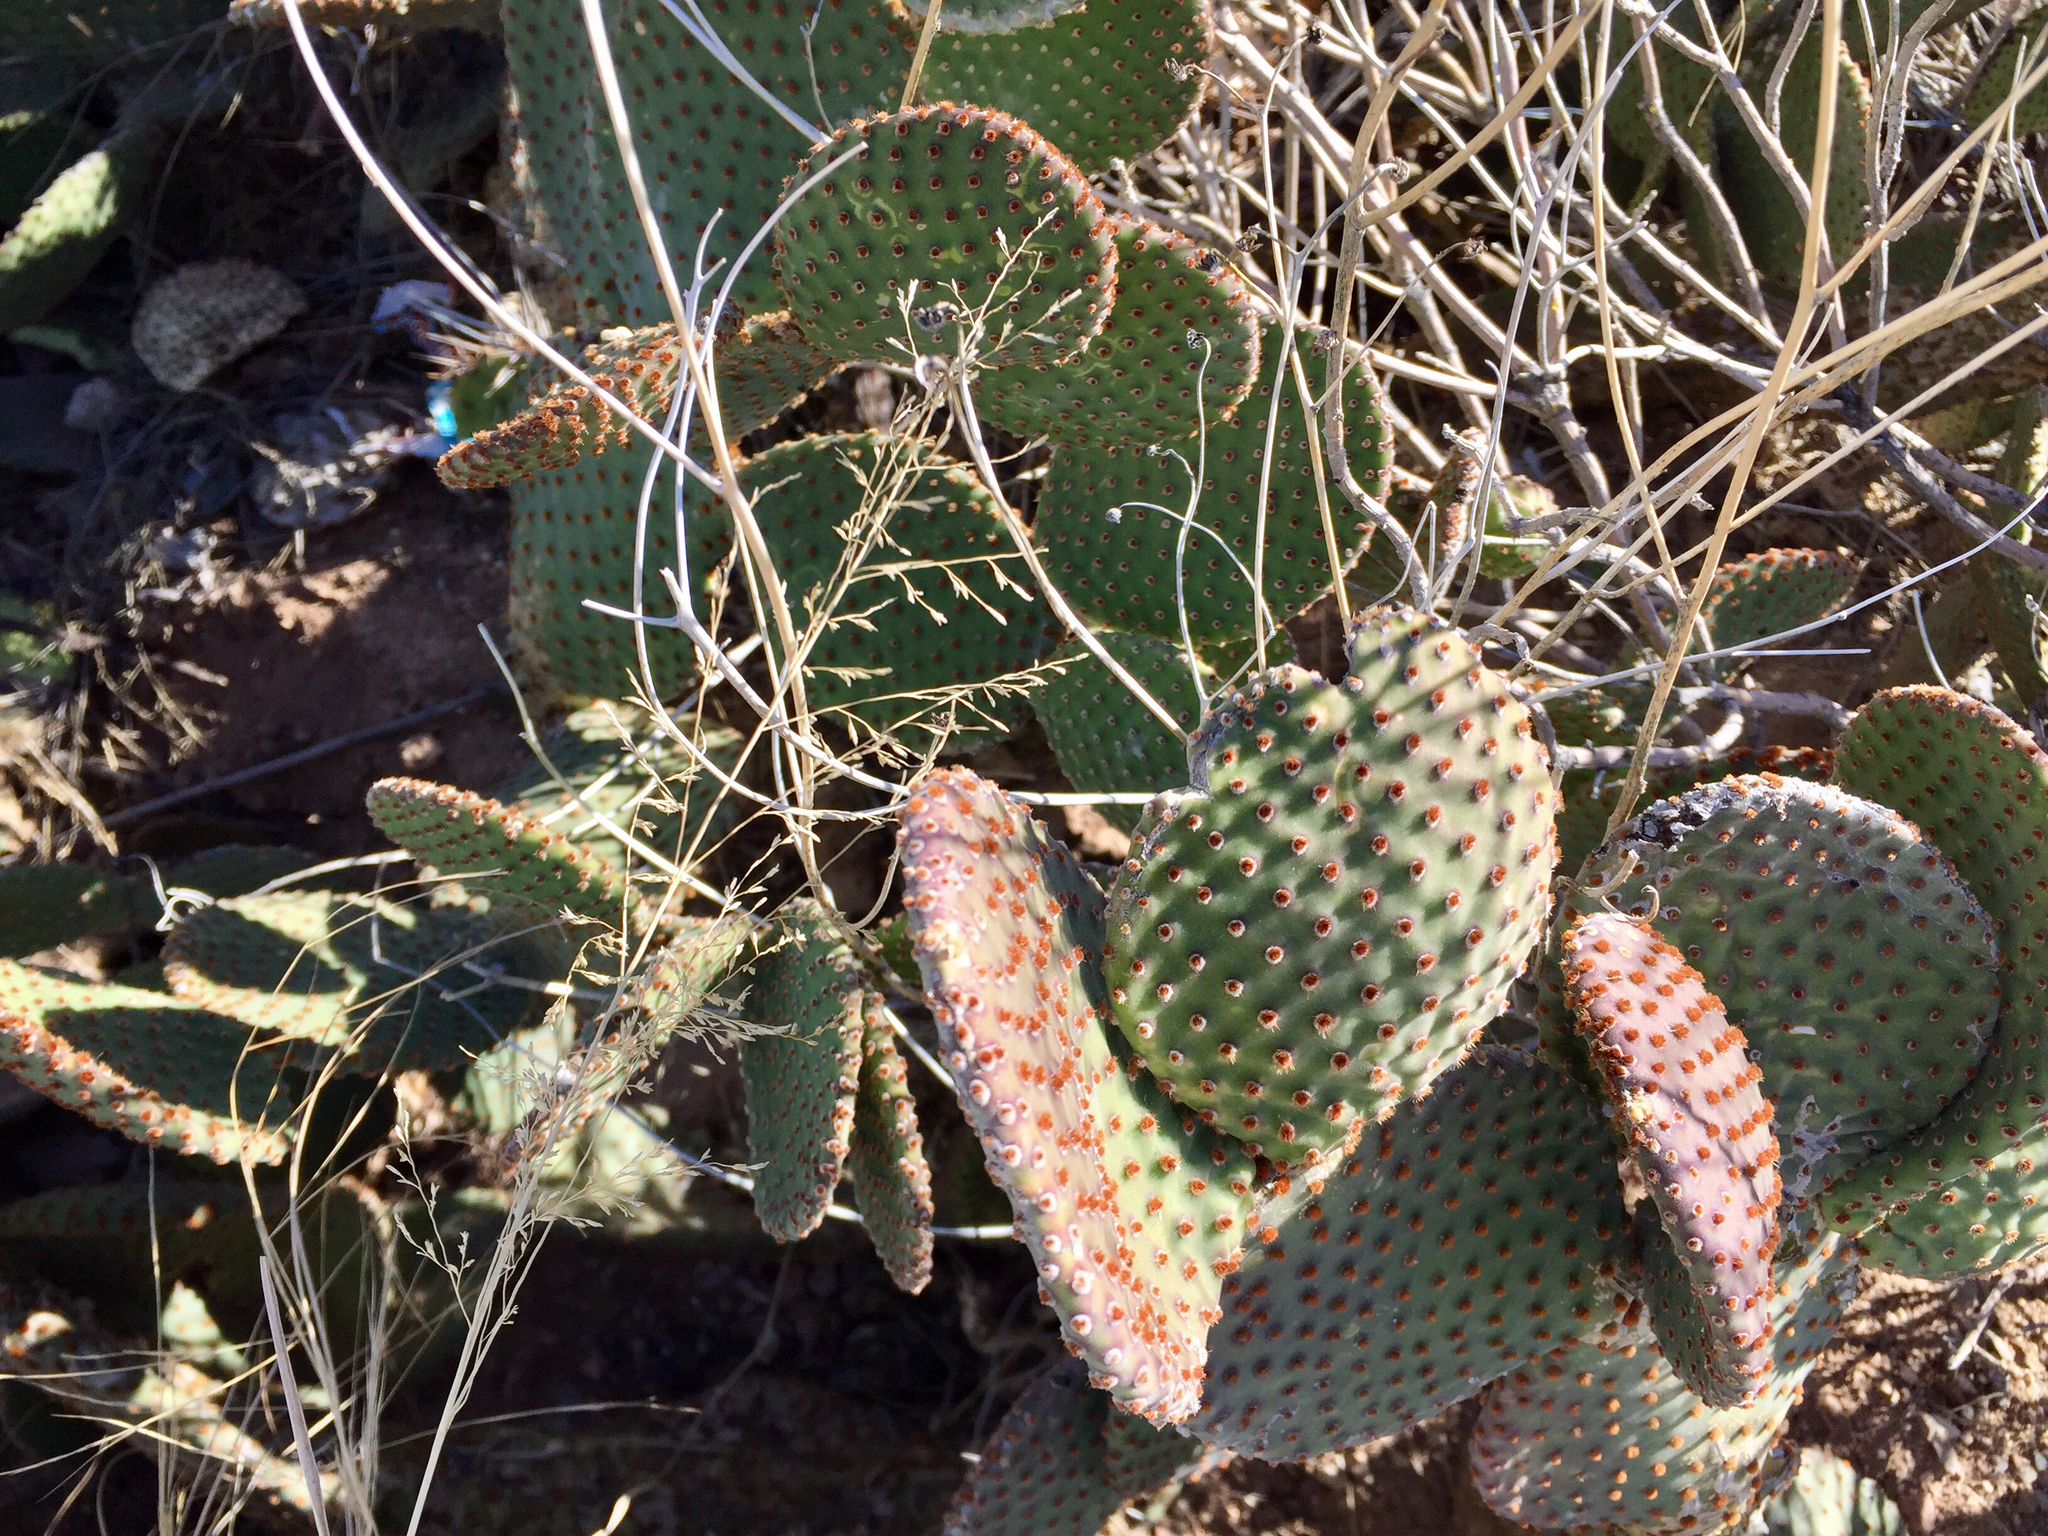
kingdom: Plantae
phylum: Tracheophyta
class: Magnoliopsida
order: Caryophyllales
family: Cactaceae
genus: Opuntia
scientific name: Opuntia basilaris
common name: Beavertail prickly-pear
